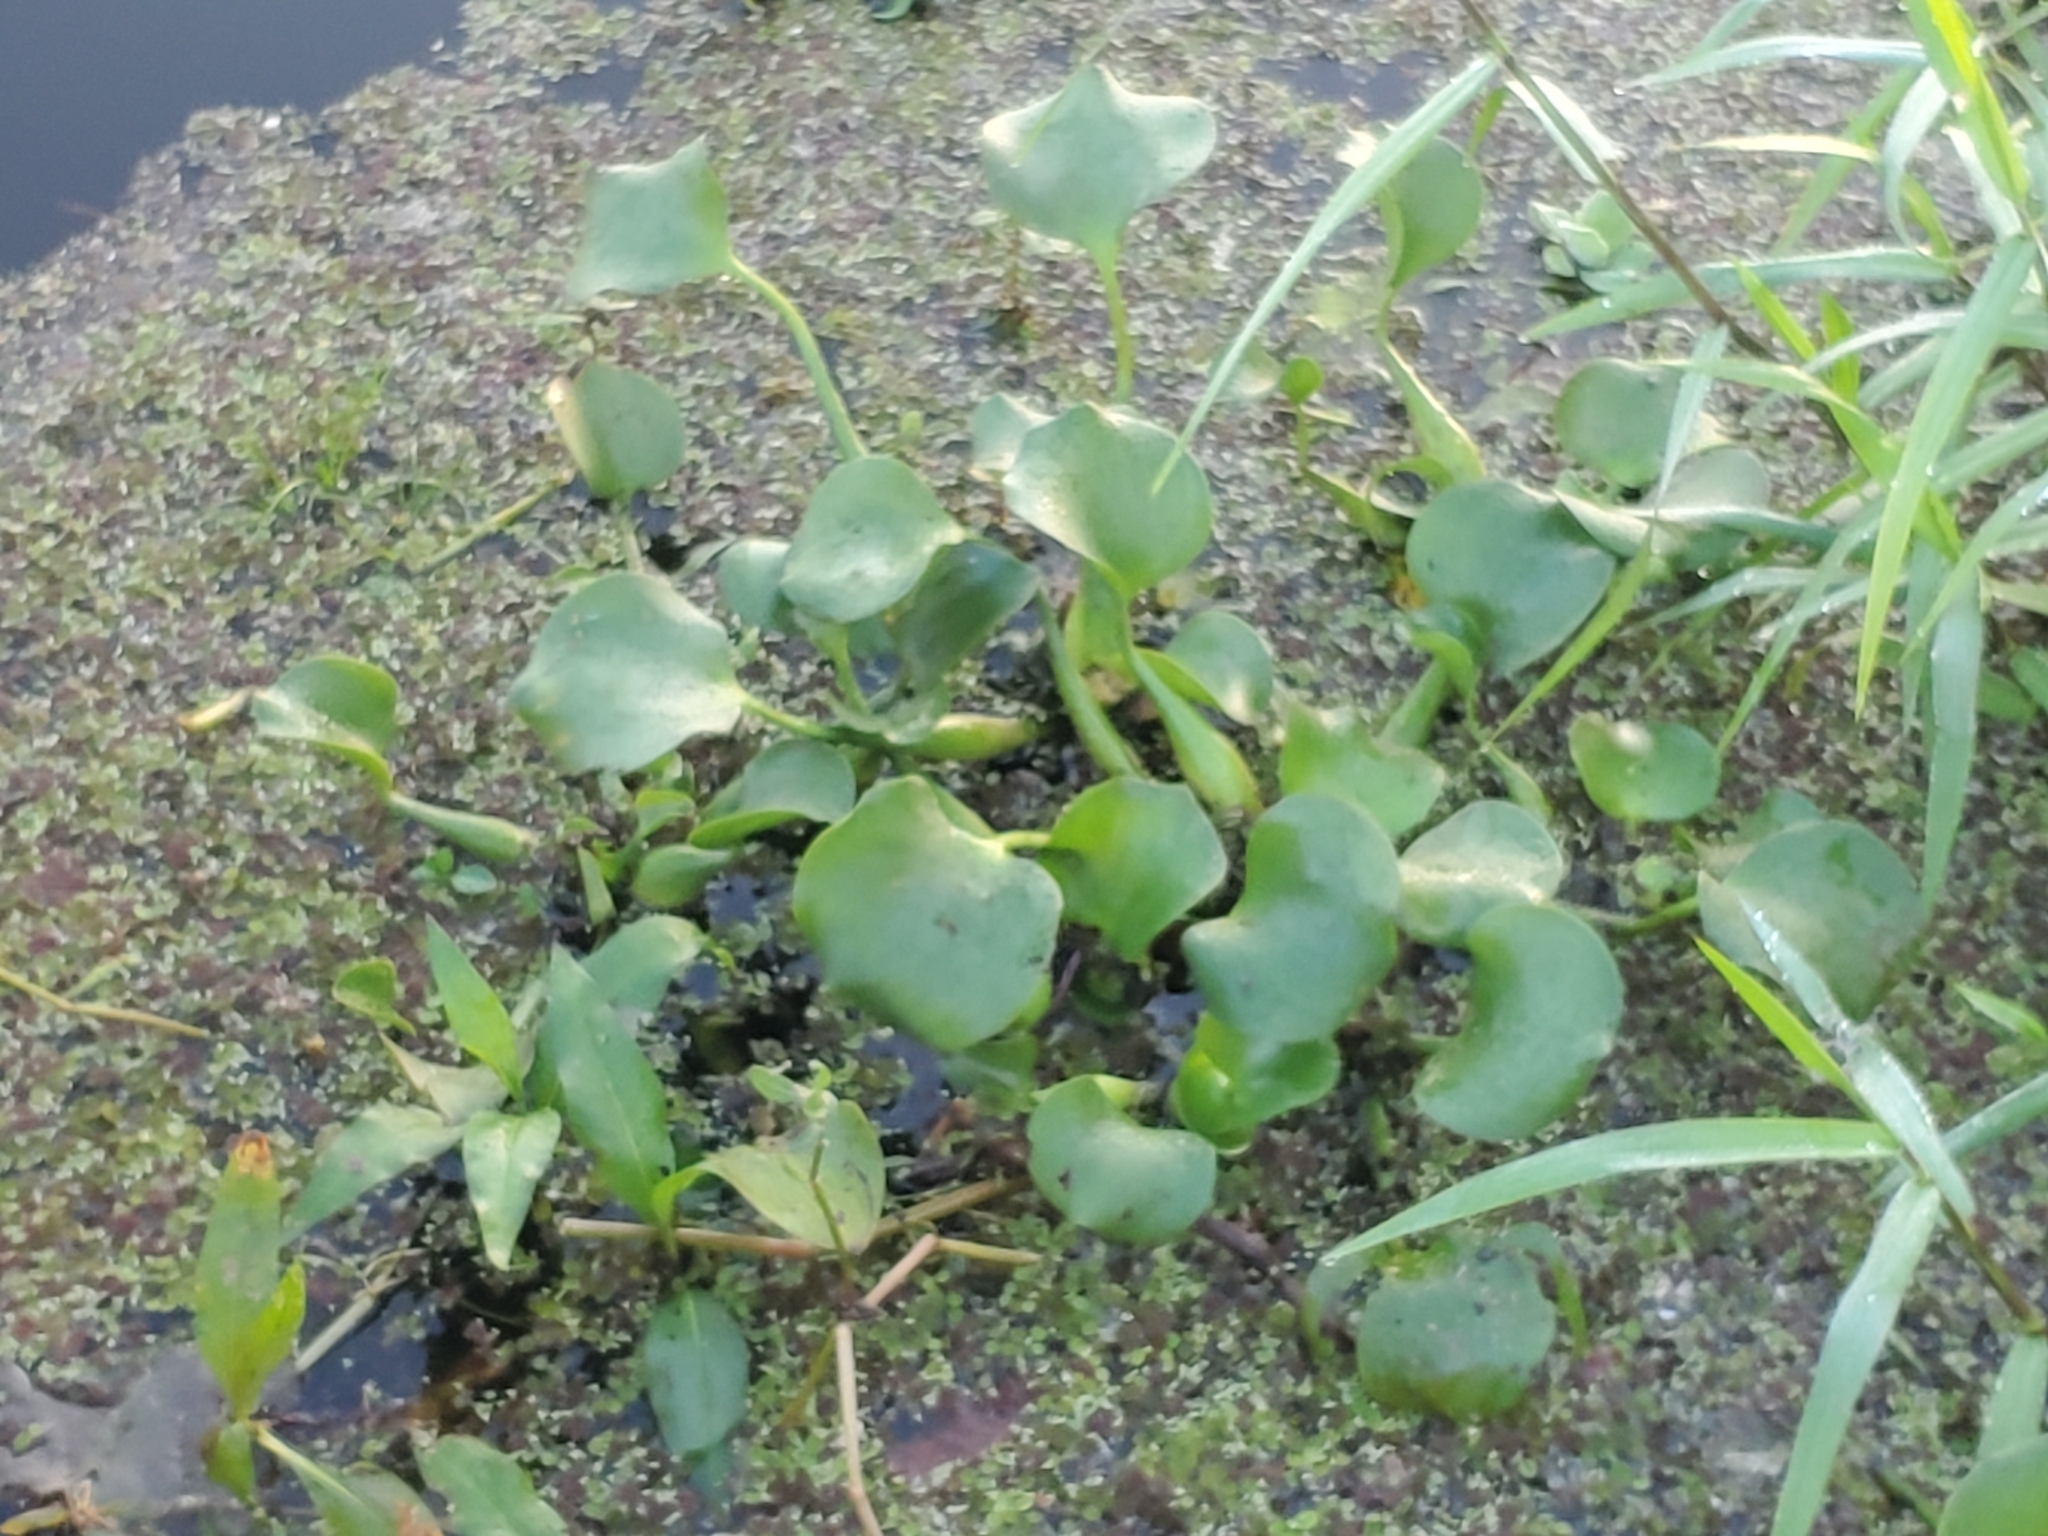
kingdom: Plantae
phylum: Tracheophyta
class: Liliopsida
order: Commelinales
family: Pontederiaceae
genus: Pontederia
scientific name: Pontederia crassipes
